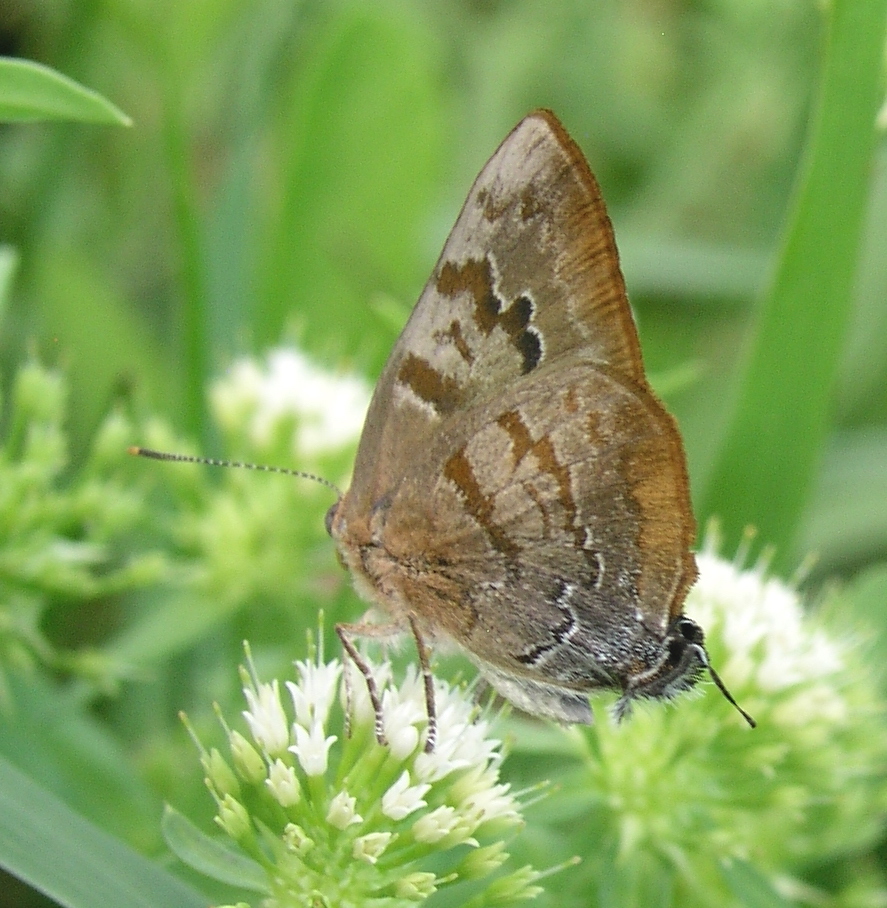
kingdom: Animalia
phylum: Arthropoda
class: Insecta
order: Lepidoptera
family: Lycaenidae
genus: Rekoa
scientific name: Rekoa palegon
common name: Gold-bordered hairstreak
